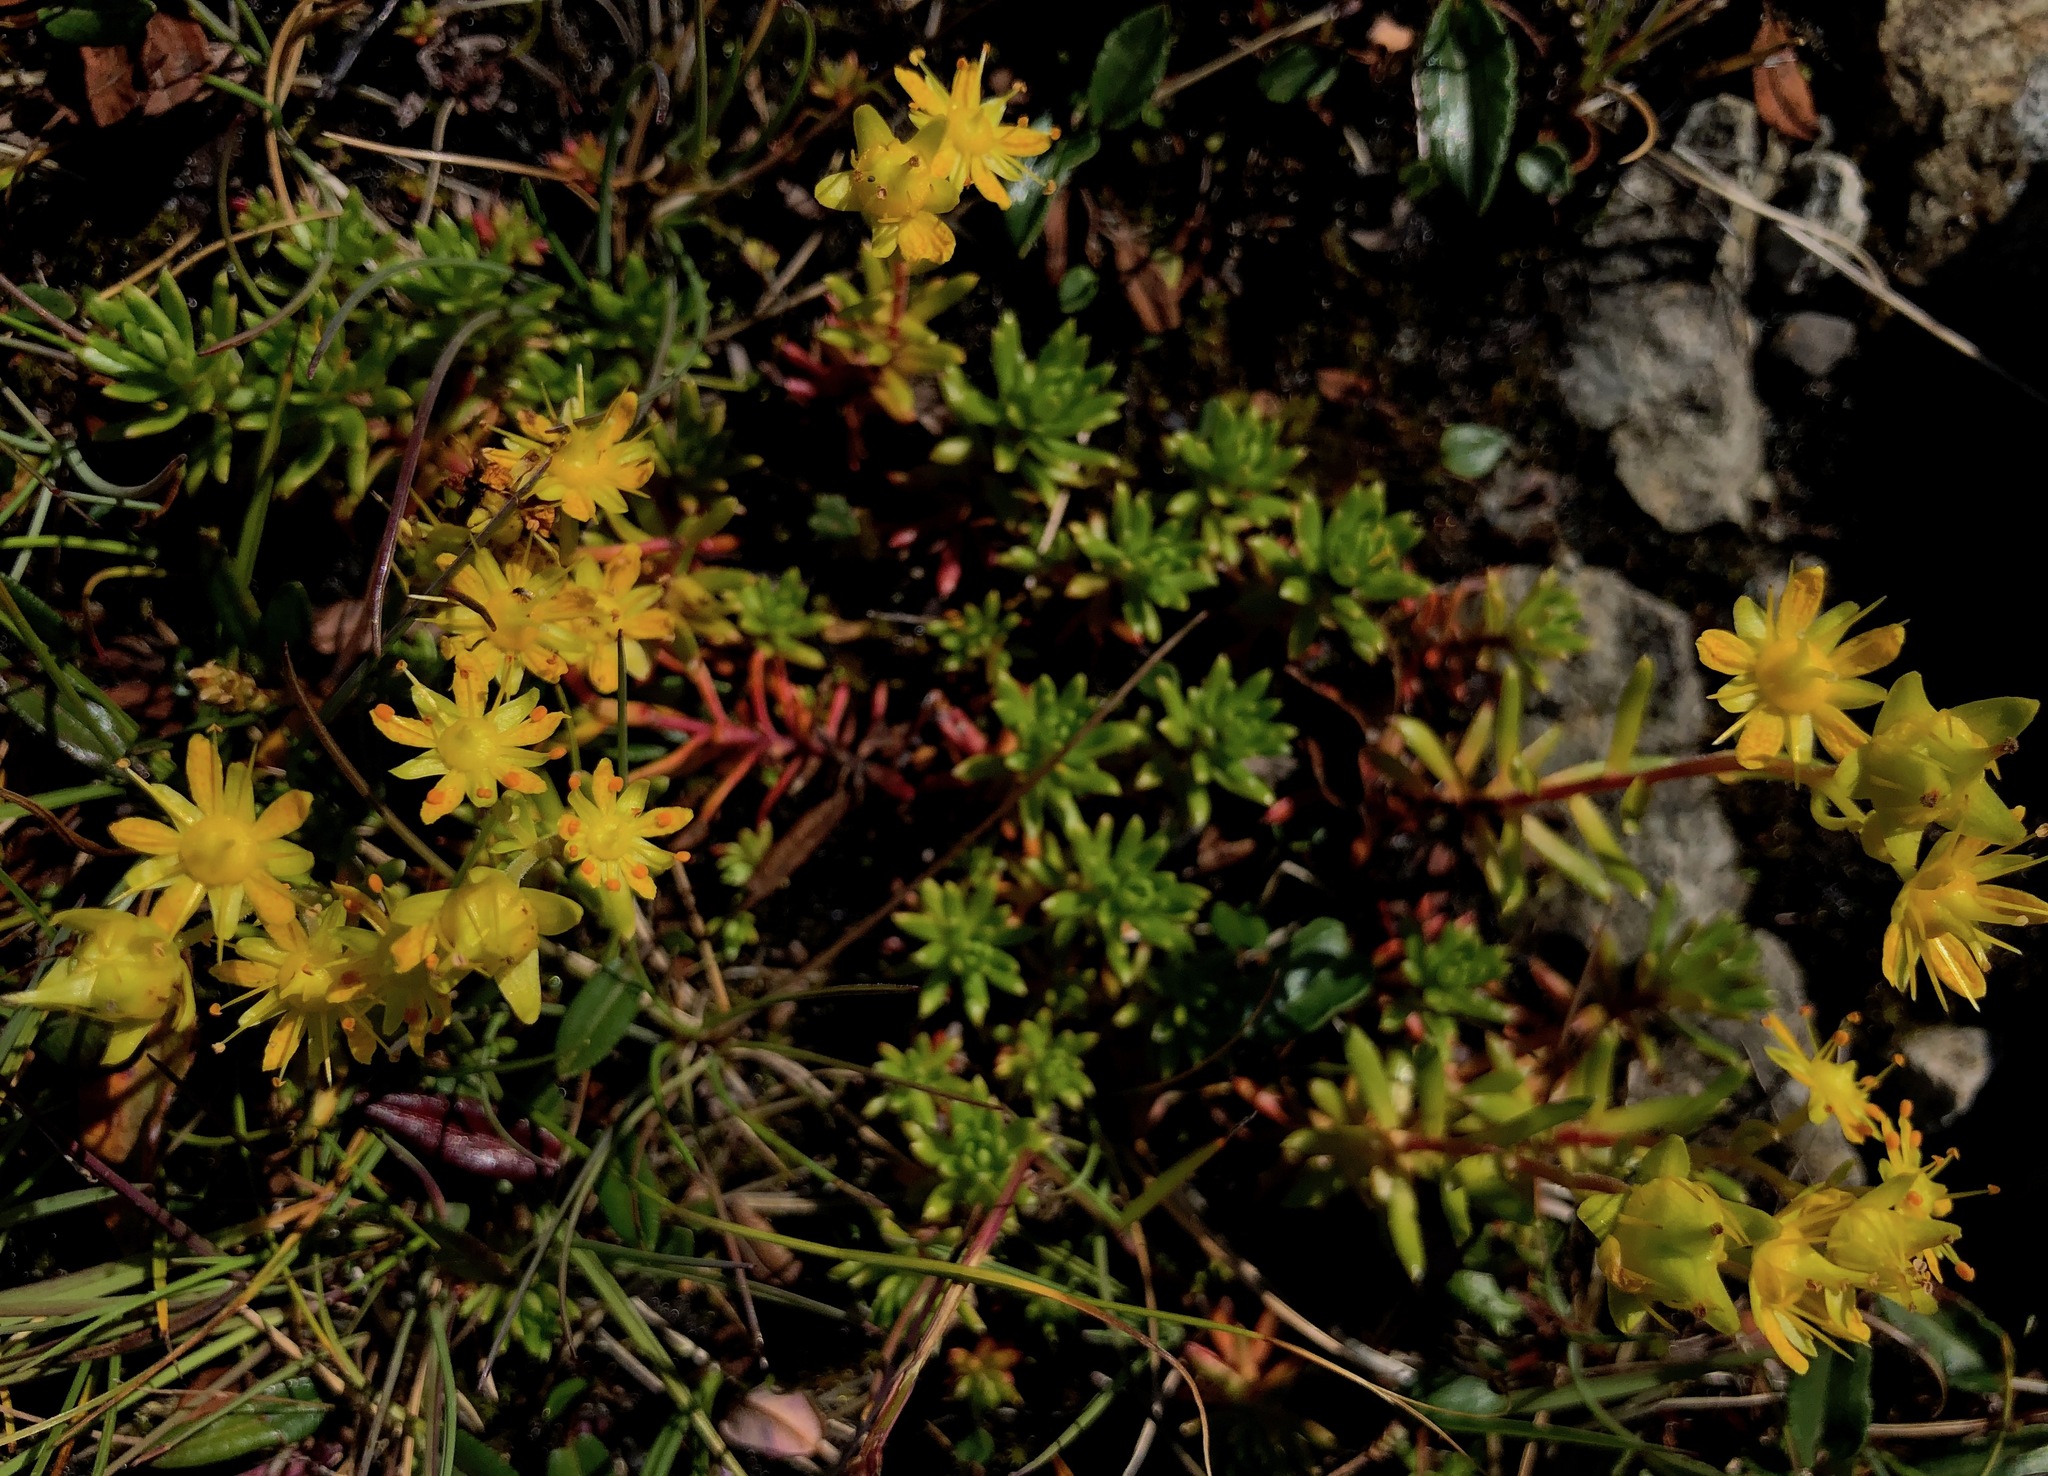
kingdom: Plantae
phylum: Tracheophyta
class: Magnoliopsida
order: Saxifragales
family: Saxifragaceae
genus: Saxifraga
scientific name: Saxifraga aizoides
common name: Yellow mountain saxifrage
